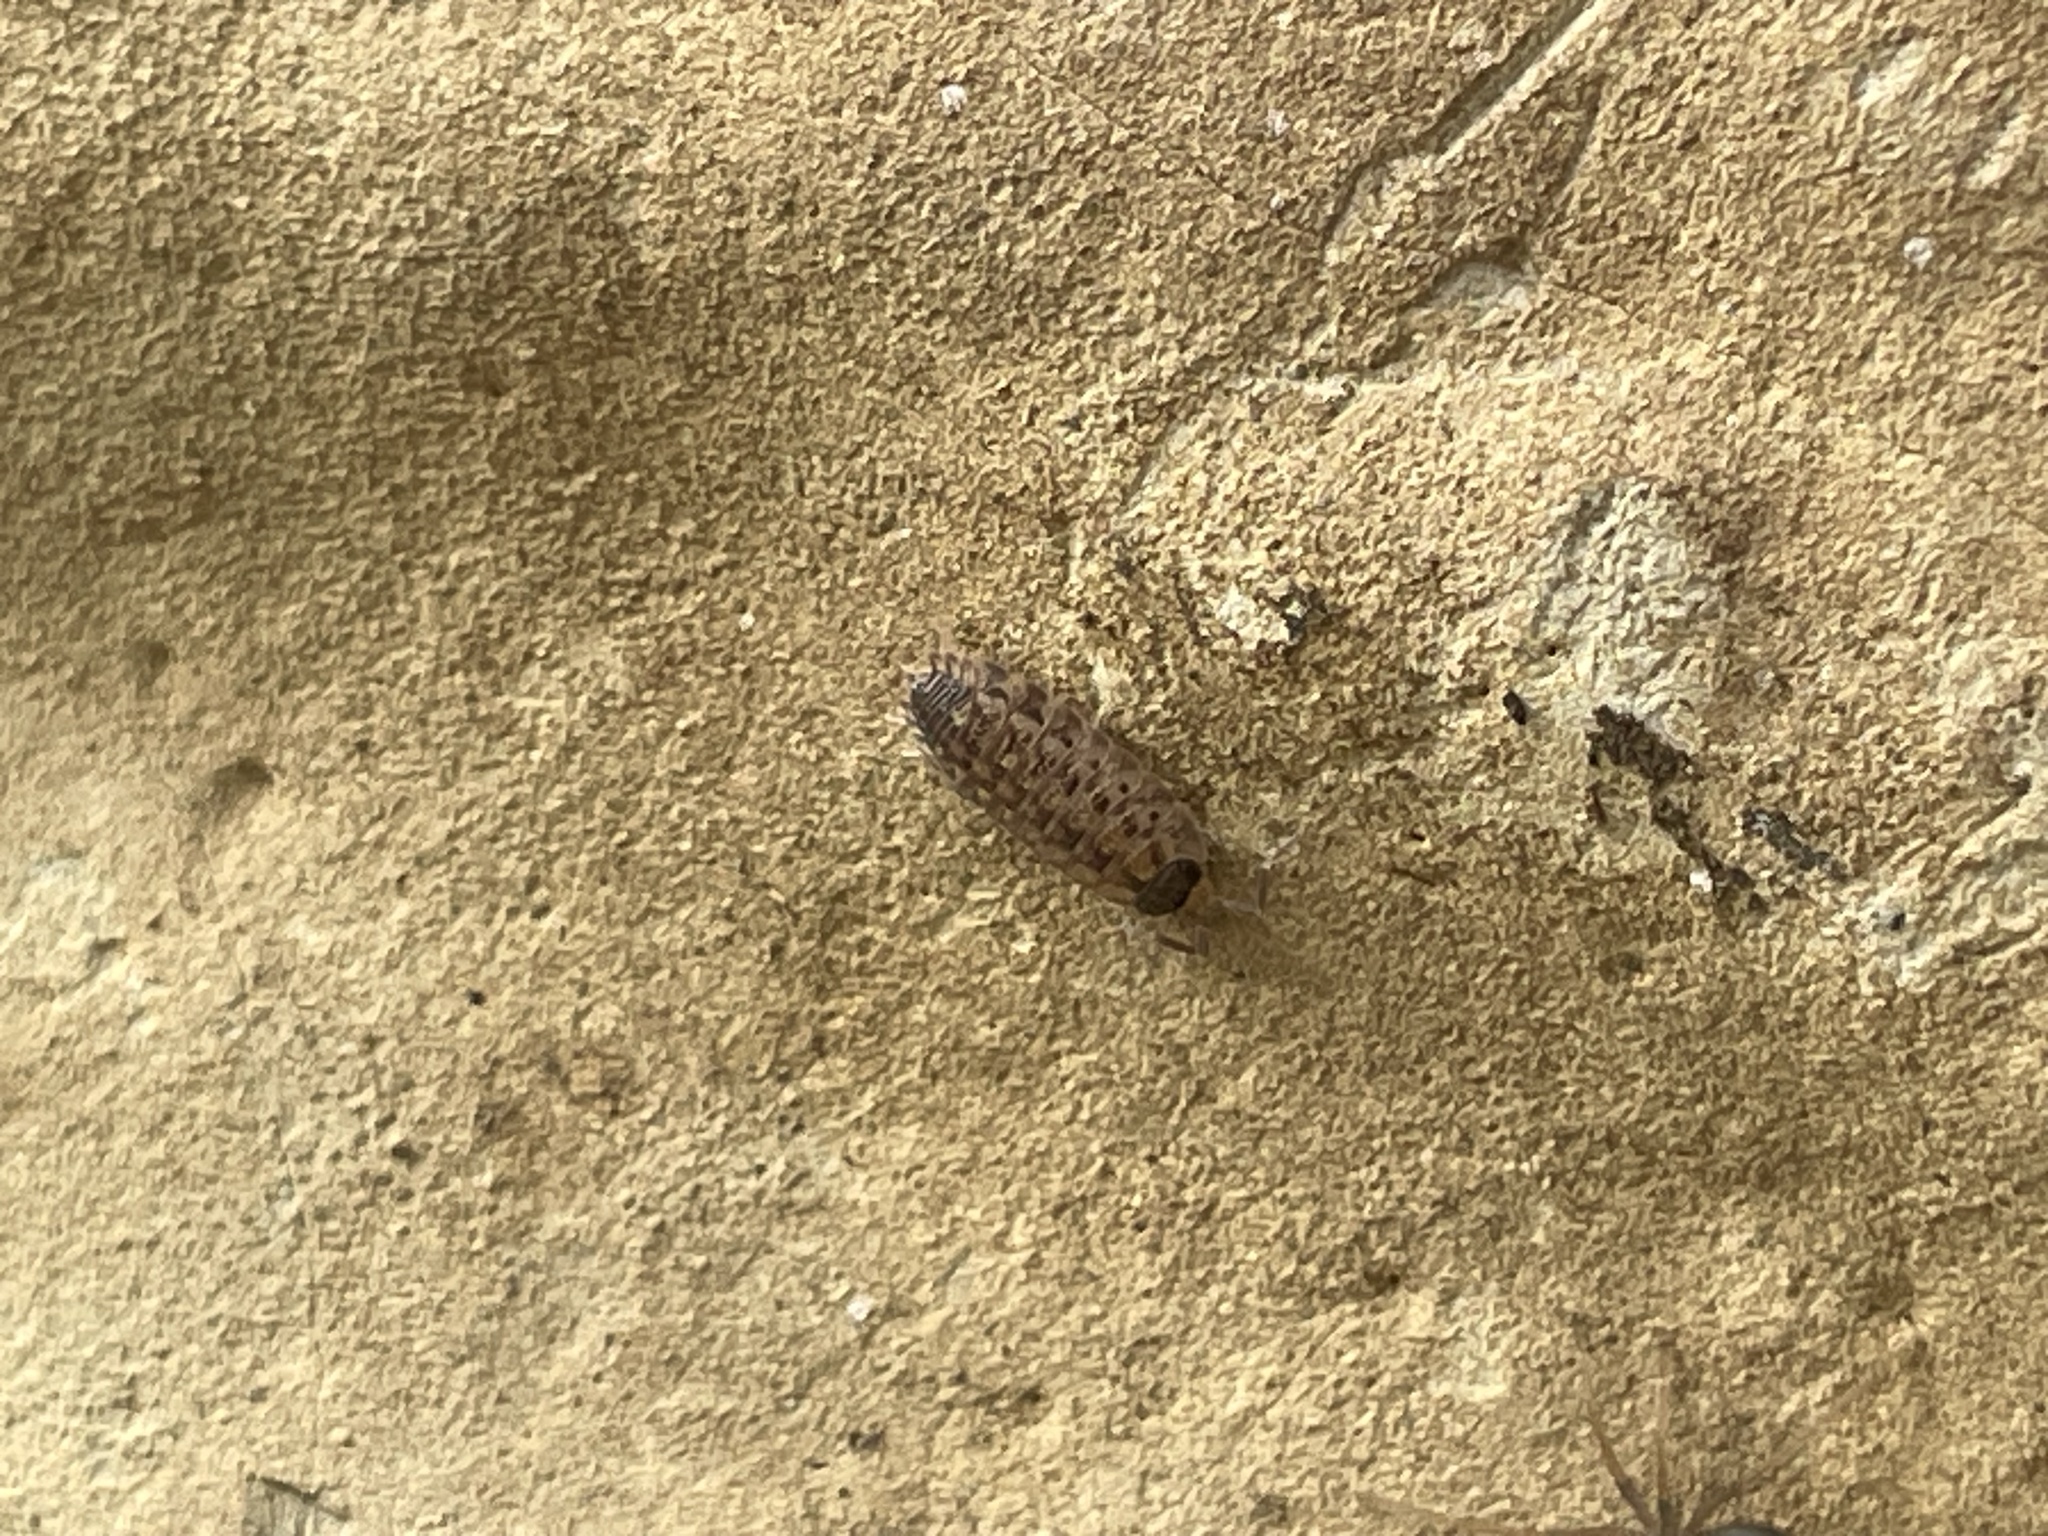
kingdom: Animalia
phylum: Arthropoda
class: Malacostraca
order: Isopoda
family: Porcellionidae
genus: Porcellio
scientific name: Porcellio spinicornis
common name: Painted woodlouse
